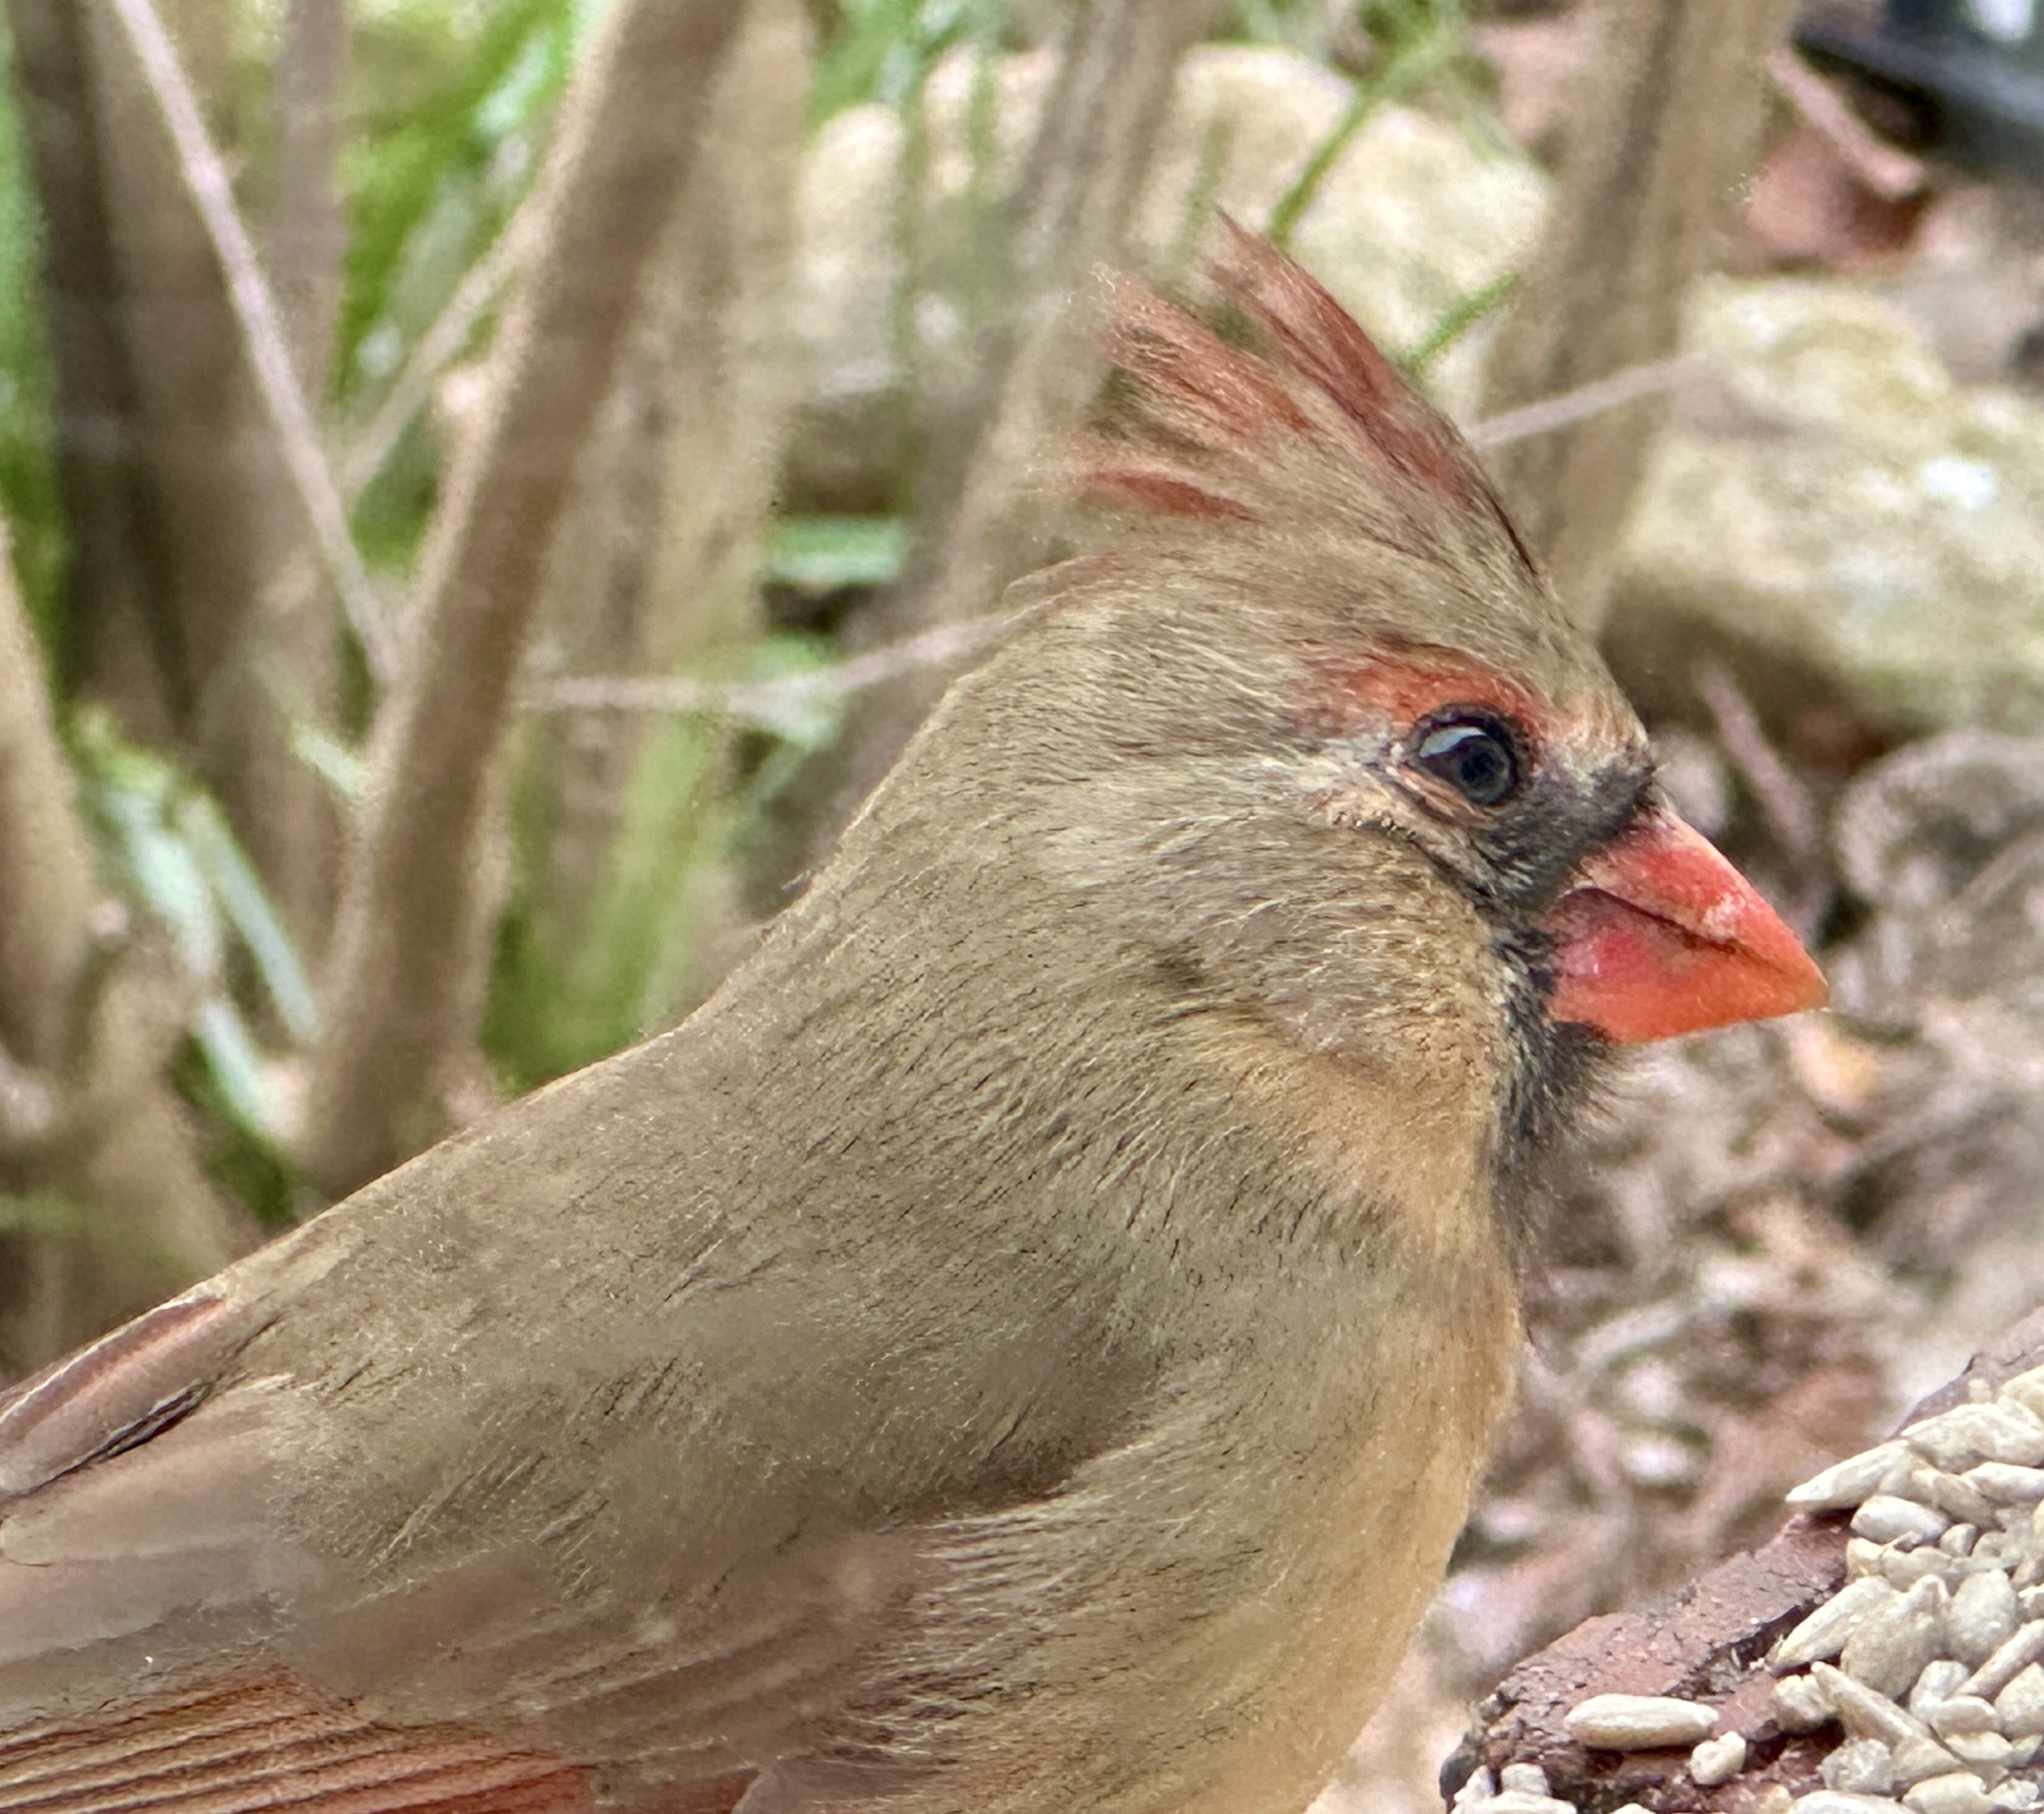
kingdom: Animalia
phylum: Chordata
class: Aves
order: Passeriformes
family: Cardinalidae
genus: Cardinalis
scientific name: Cardinalis cardinalis
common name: Northern cardinal
